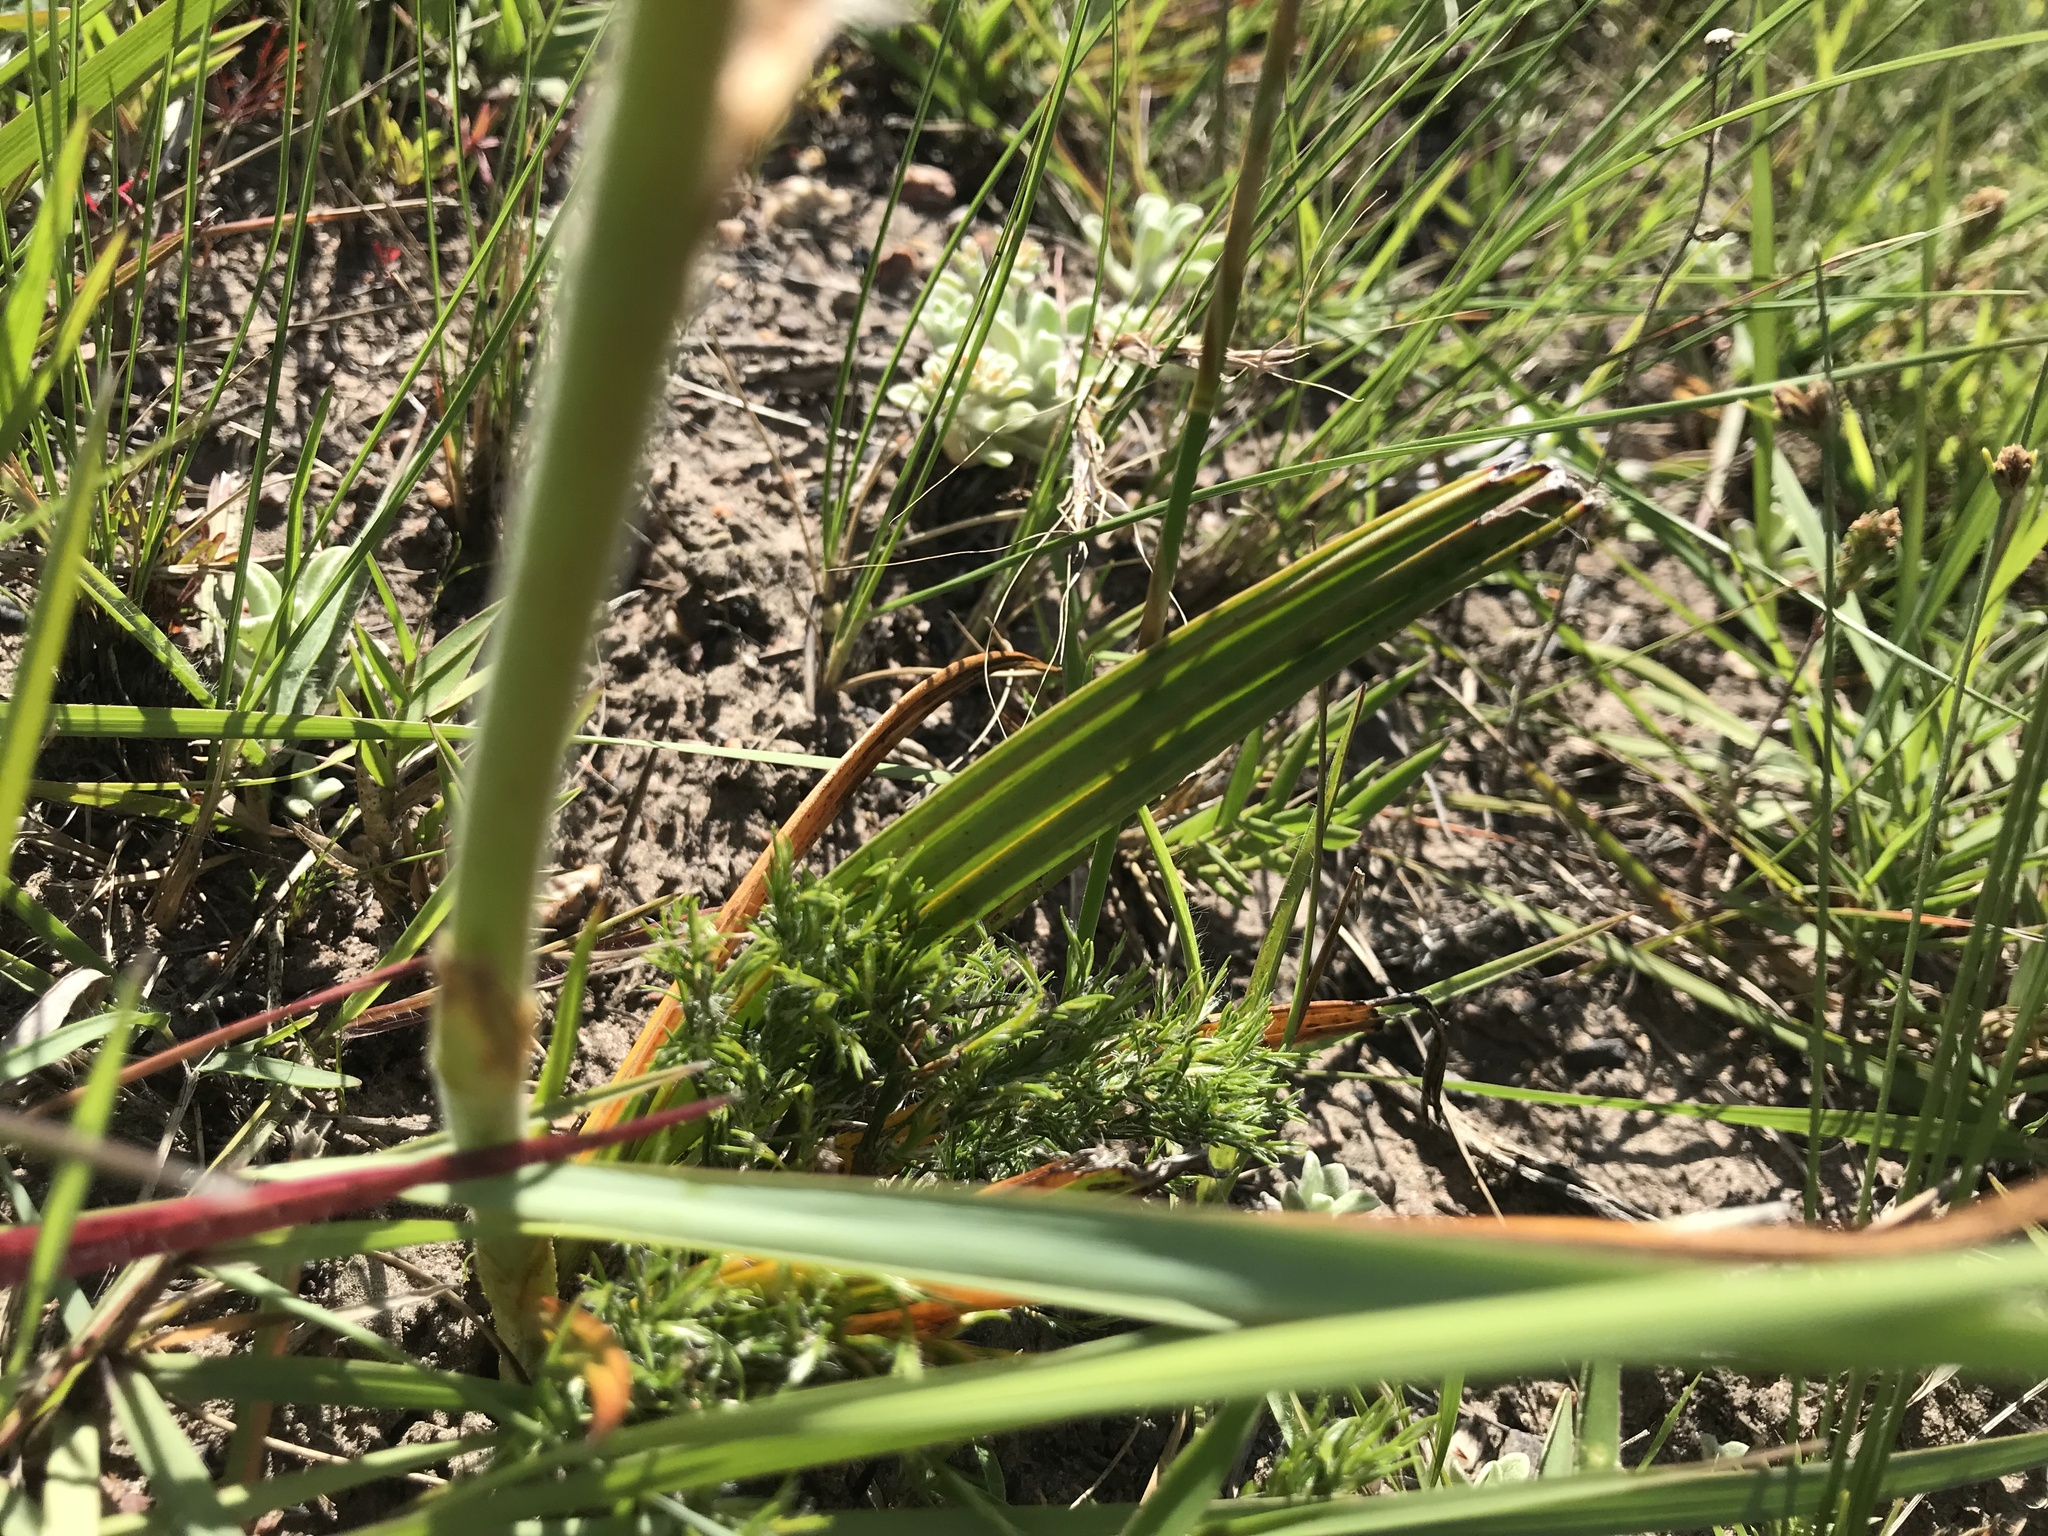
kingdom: Plantae
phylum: Tracheophyta
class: Liliopsida
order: Commelinales
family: Haemodoraceae
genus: Wachendorfia
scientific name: Wachendorfia paniculata
